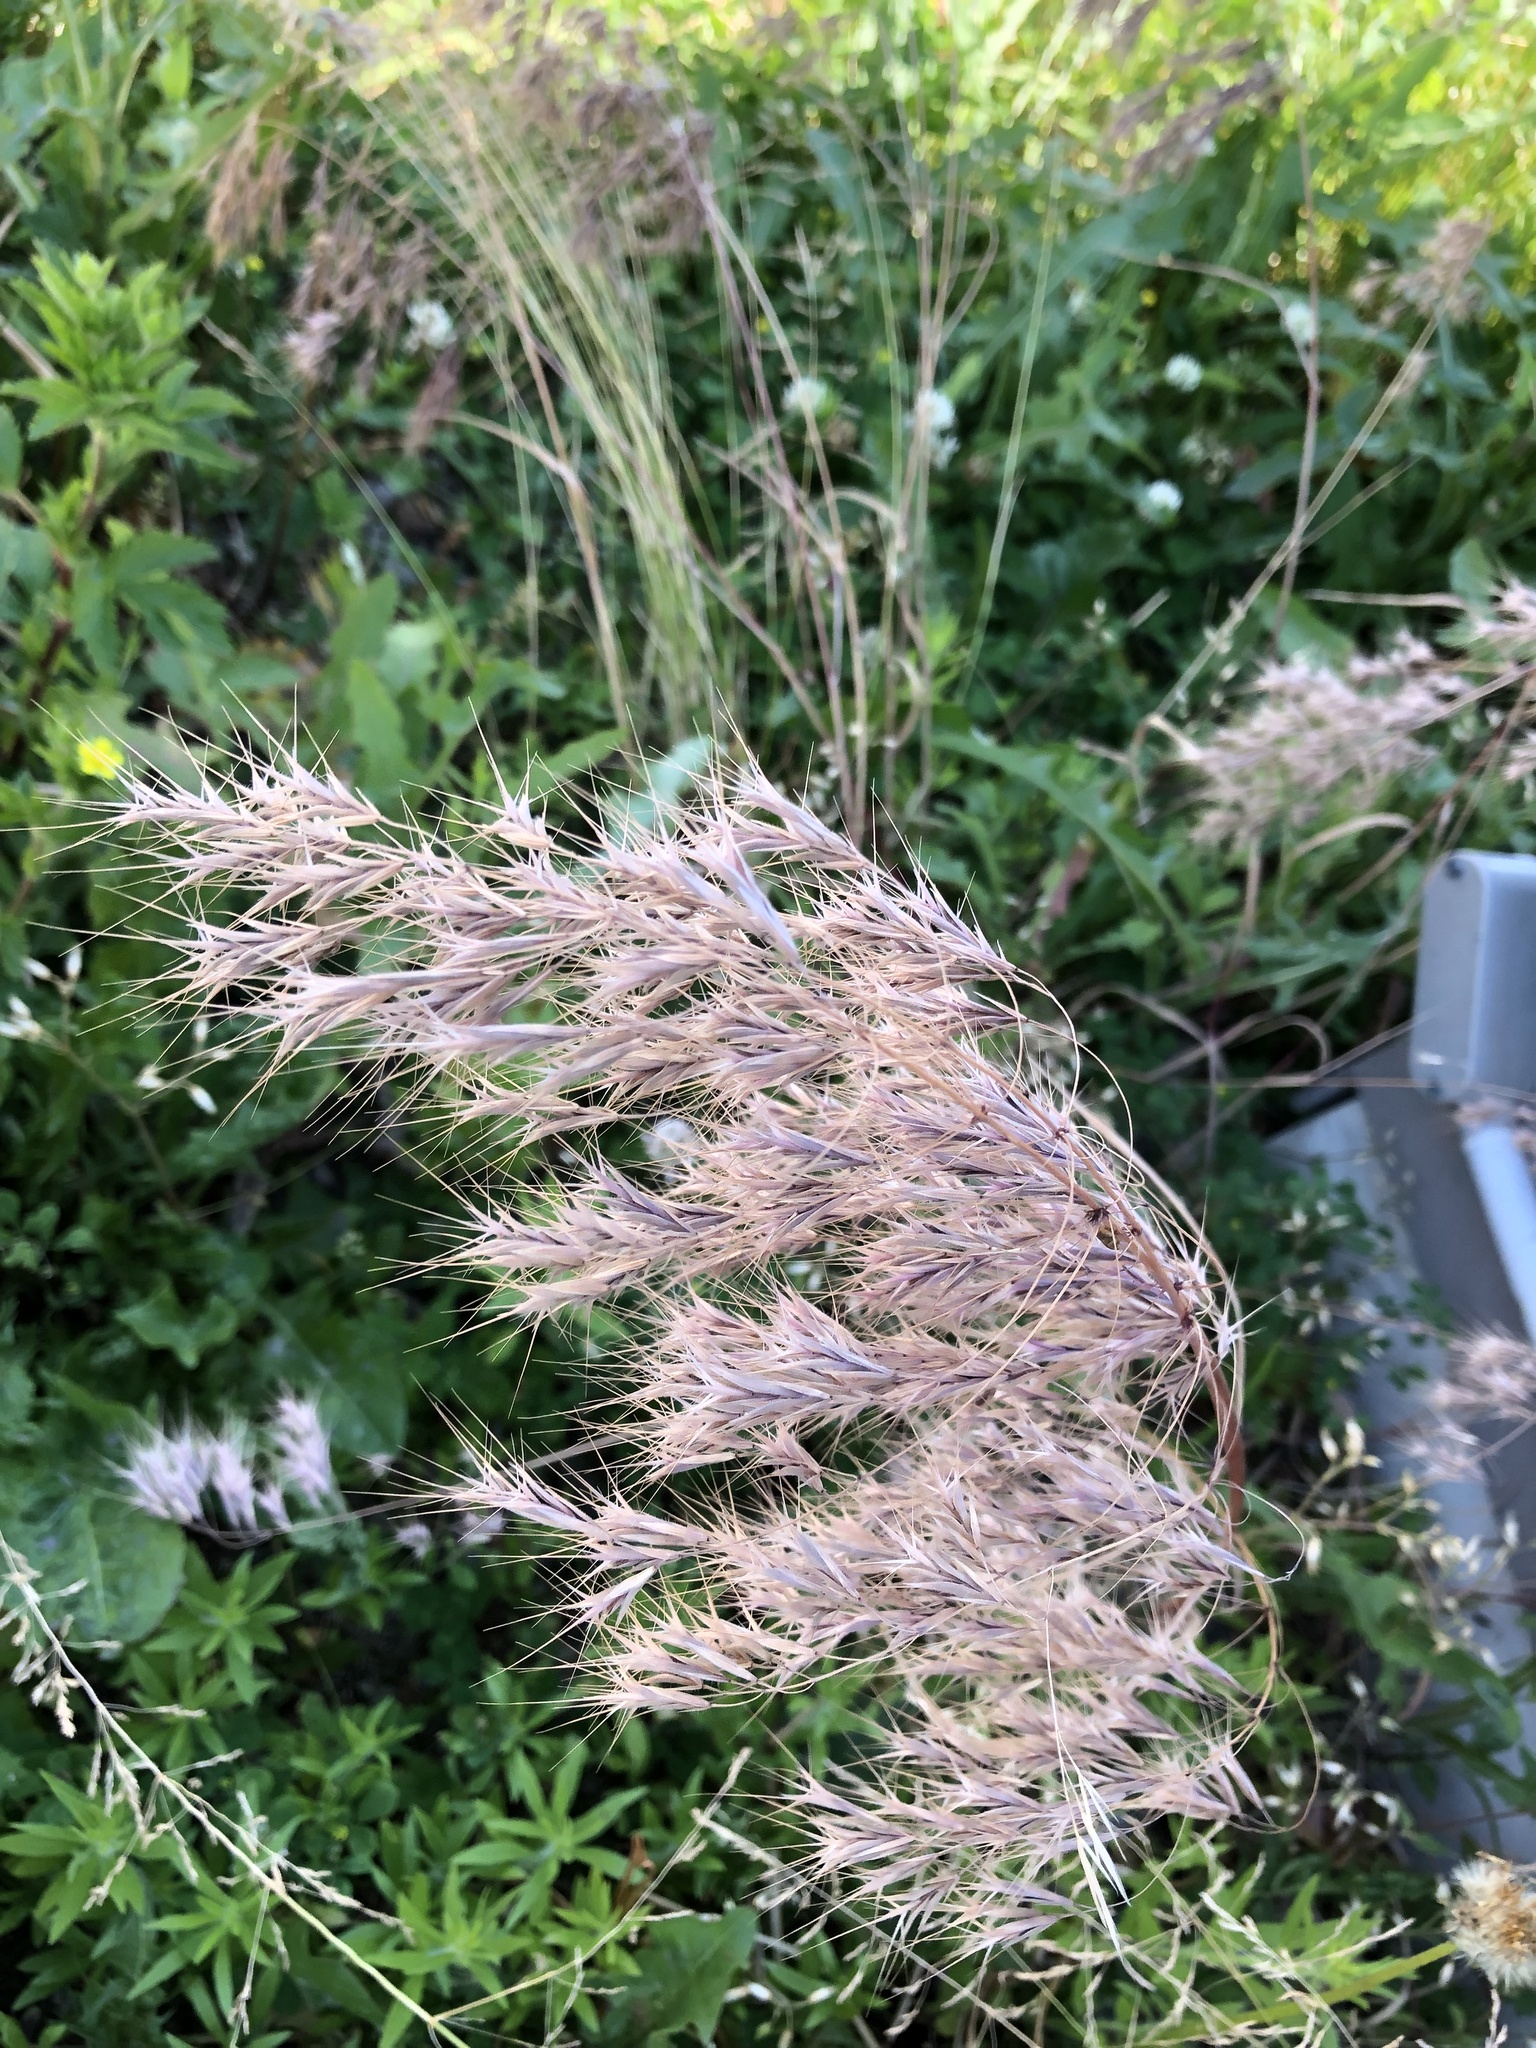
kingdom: Plantae
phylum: Tracheophyta
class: Liliopsida
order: Poales
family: Poaceae
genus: Bromus
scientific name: Bromus tectorum
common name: Cheatgrass
